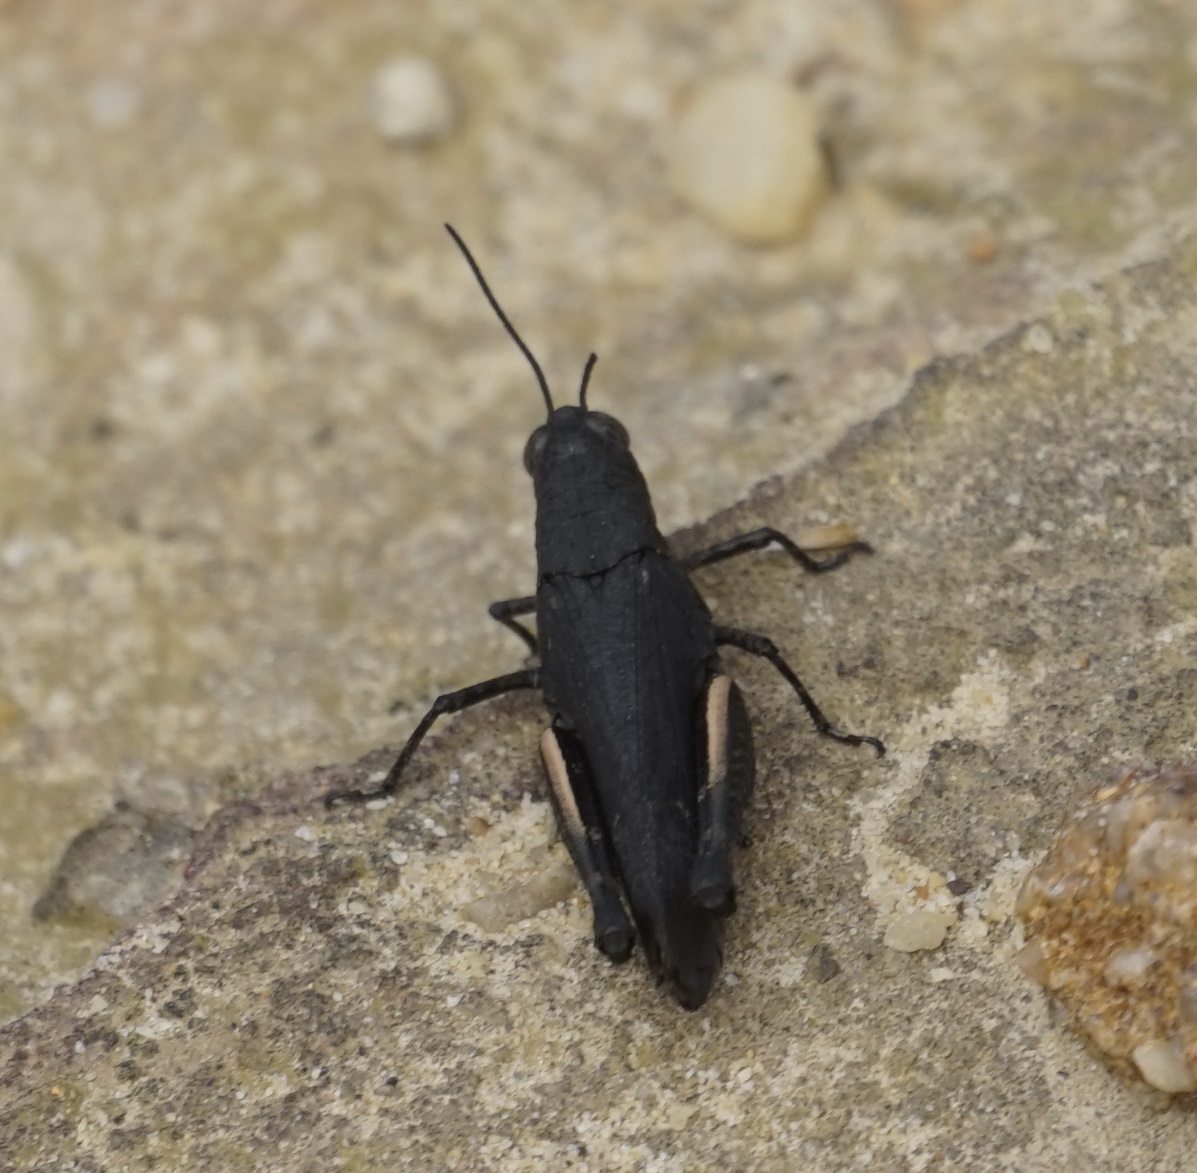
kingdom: Animalia
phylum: Arthropoda
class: Insecta
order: Orthoptera
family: Acrididae
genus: Cirphula
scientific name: Cirphula pyrrhocnemis
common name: Variable cirphula
